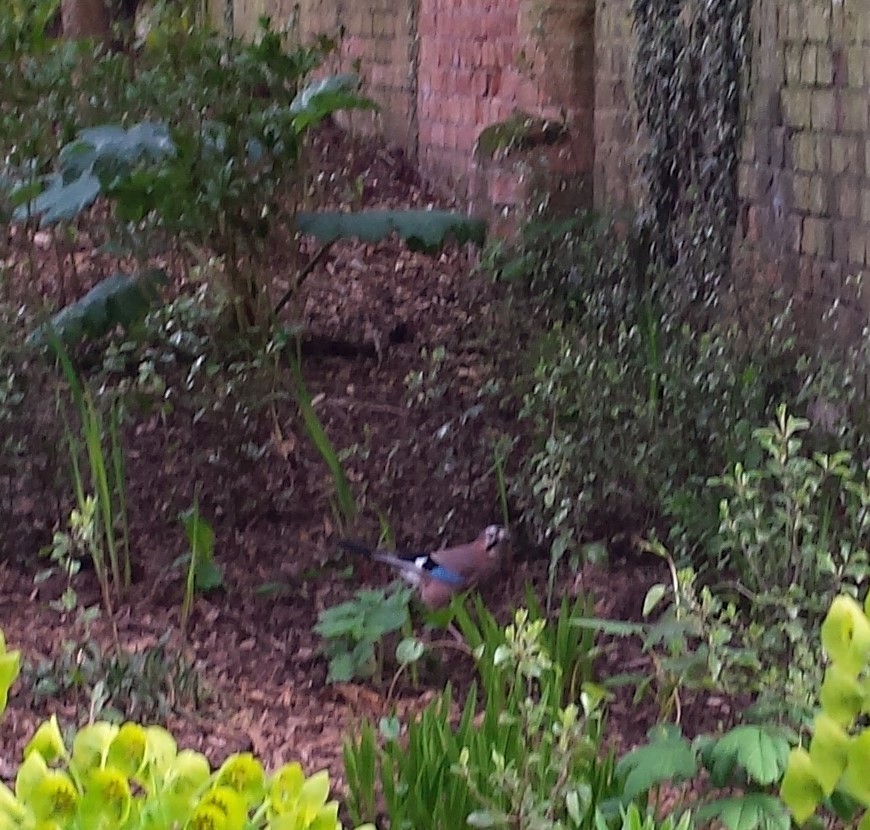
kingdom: Animalia
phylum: Chordata
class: Aves
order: Passeriformes
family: Corvidae
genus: Garrulus
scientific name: Garrulus glandarius
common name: Eurasian jay
